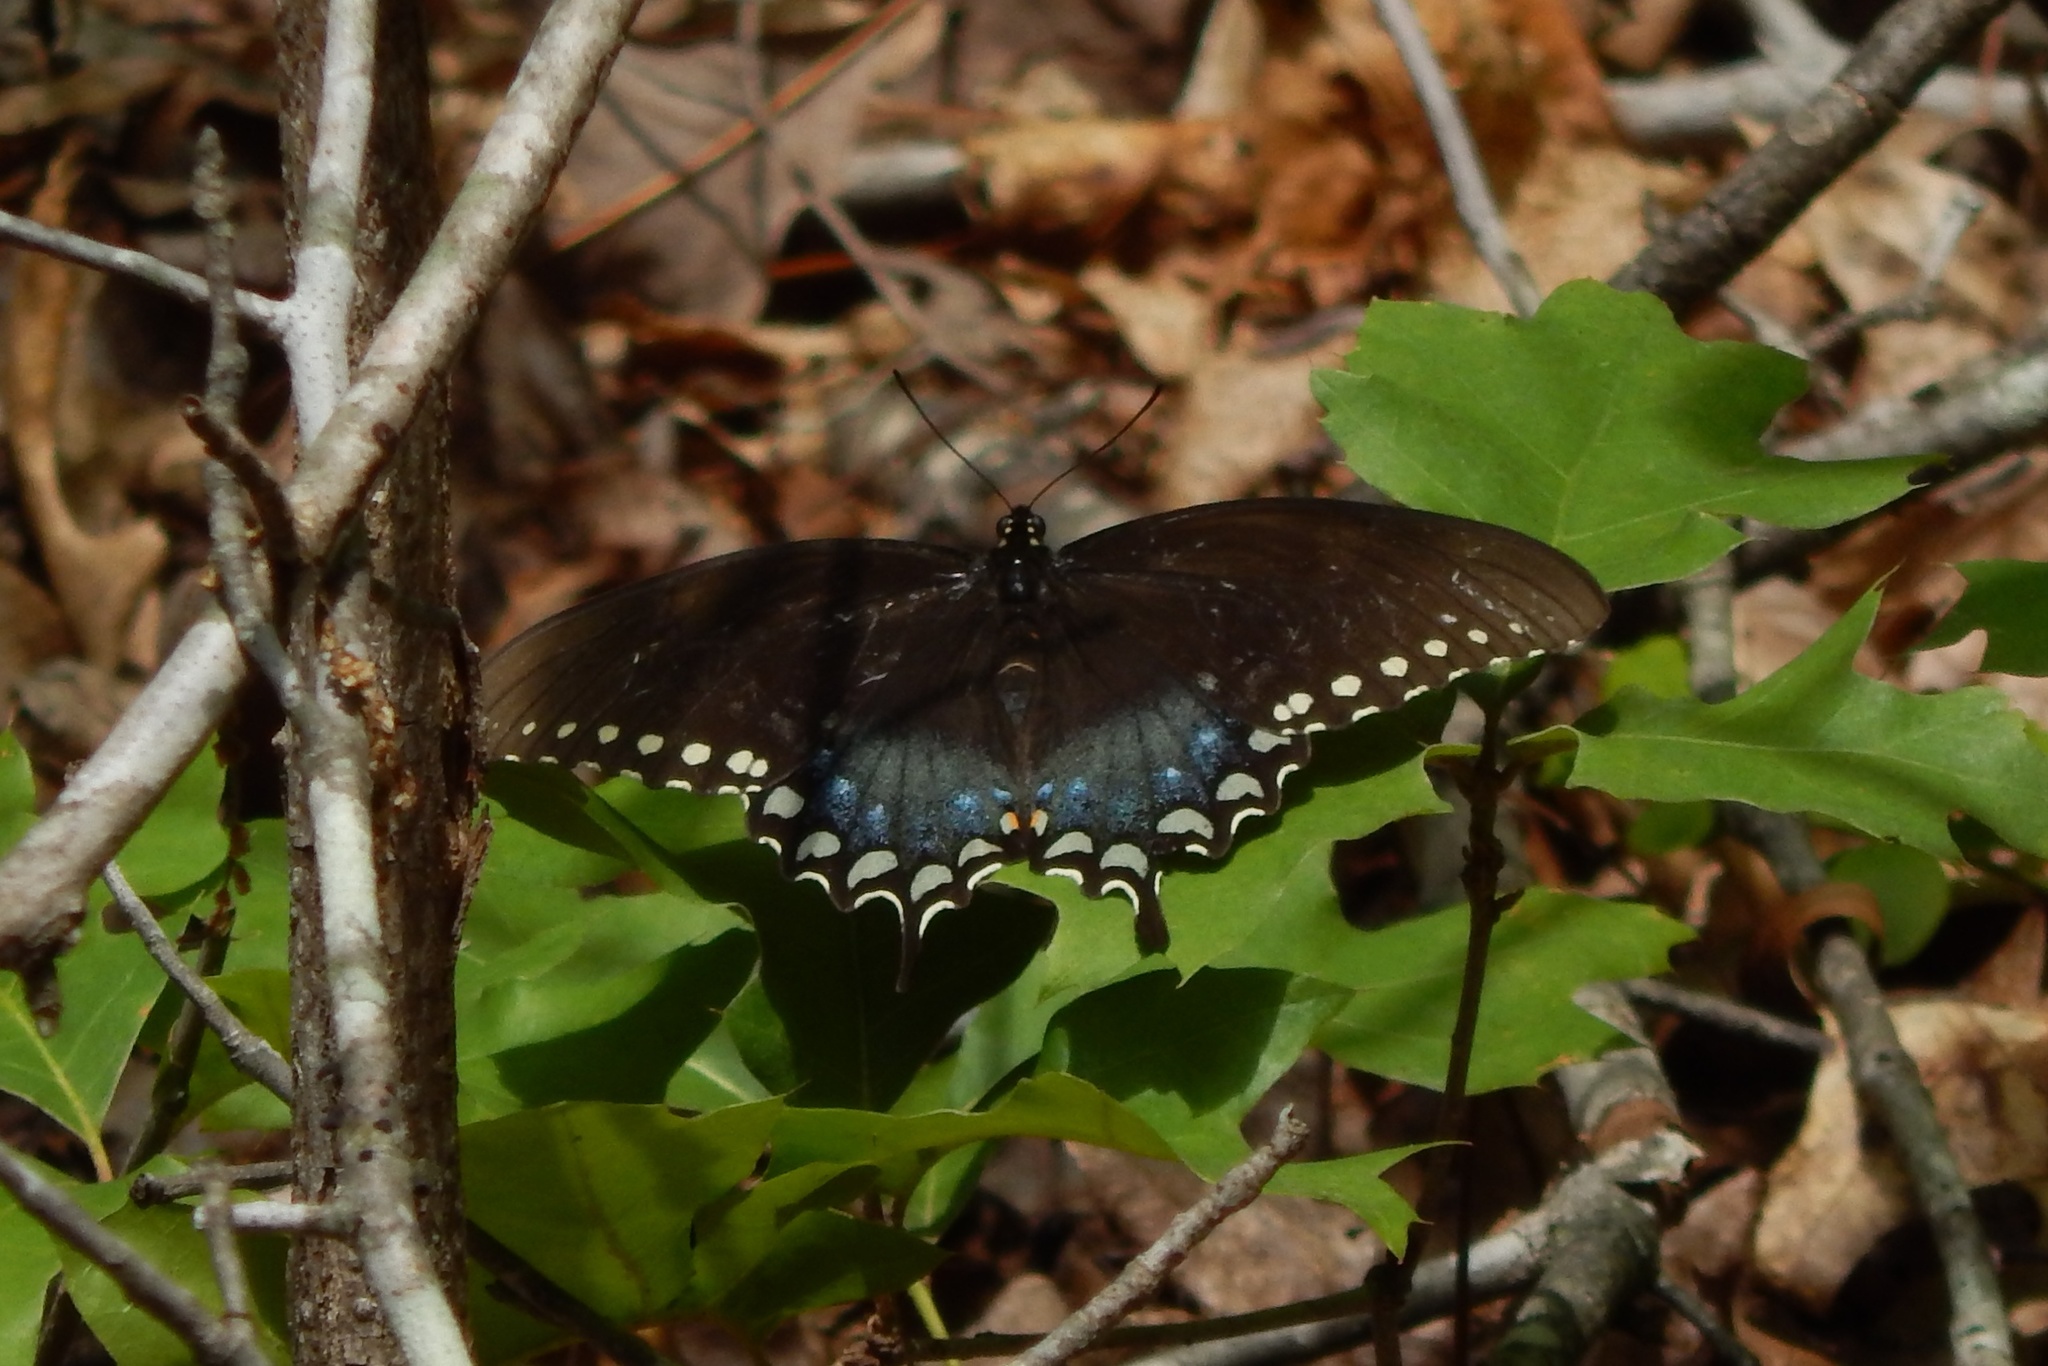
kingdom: Animalia
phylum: Arthropoda
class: Insecta
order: Lepidoptera
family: Papilionidae
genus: Papilio
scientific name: Papilio troilus
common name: Spicebush swallowtail
